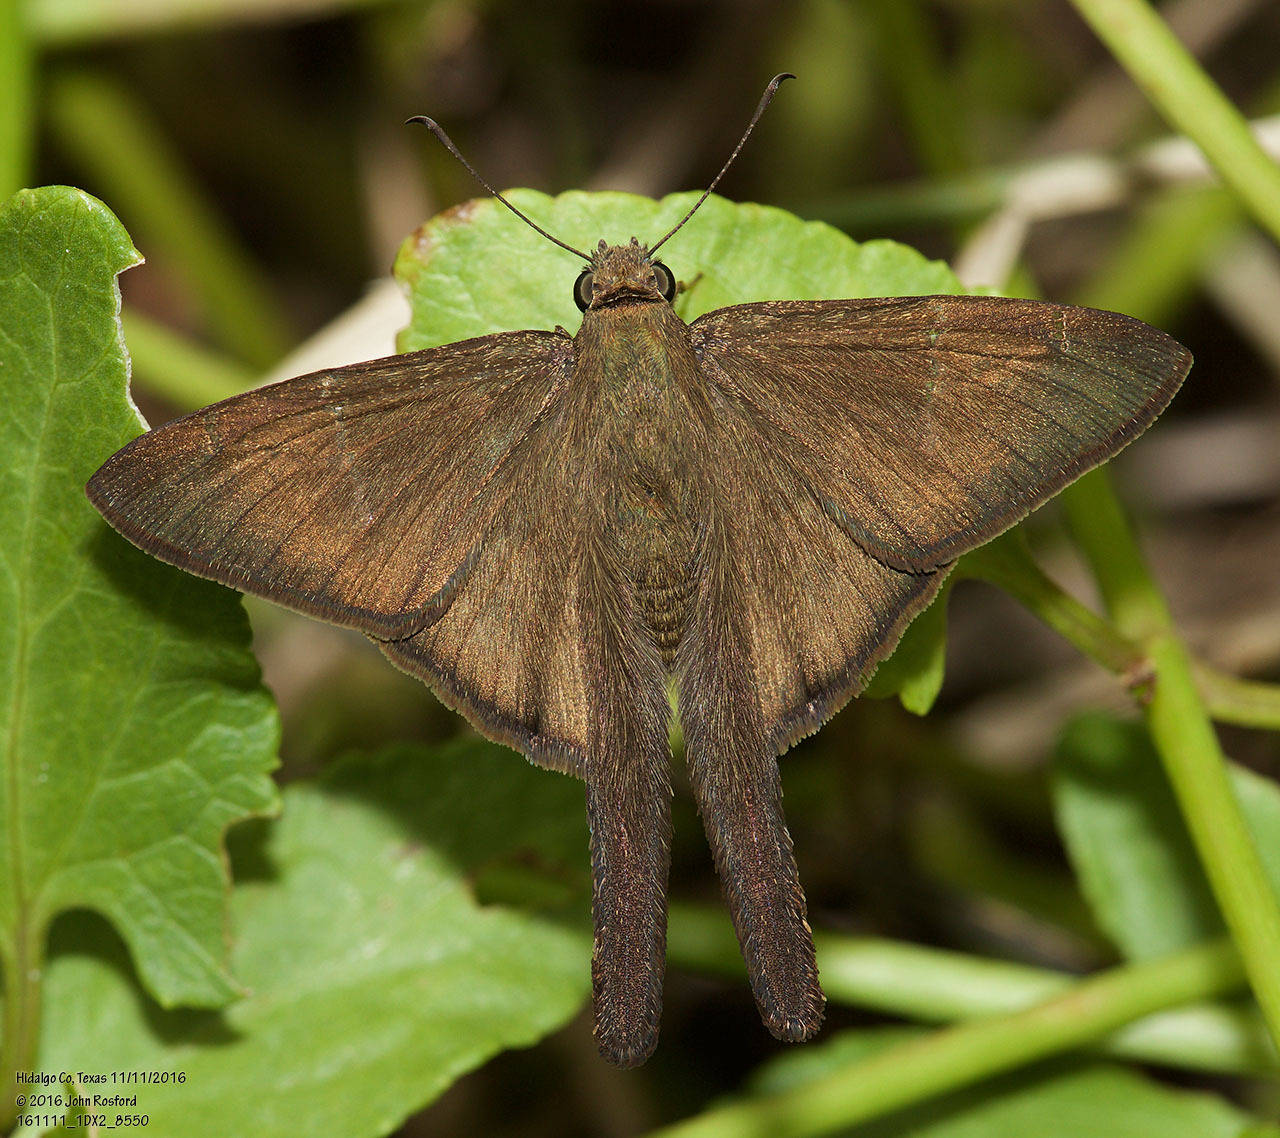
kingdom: Animalia
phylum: Arthropoda
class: Insecta
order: Lepidoptera
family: Hesperiidae
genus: Urbanus
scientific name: Urbanus procne
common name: Brown longtail
